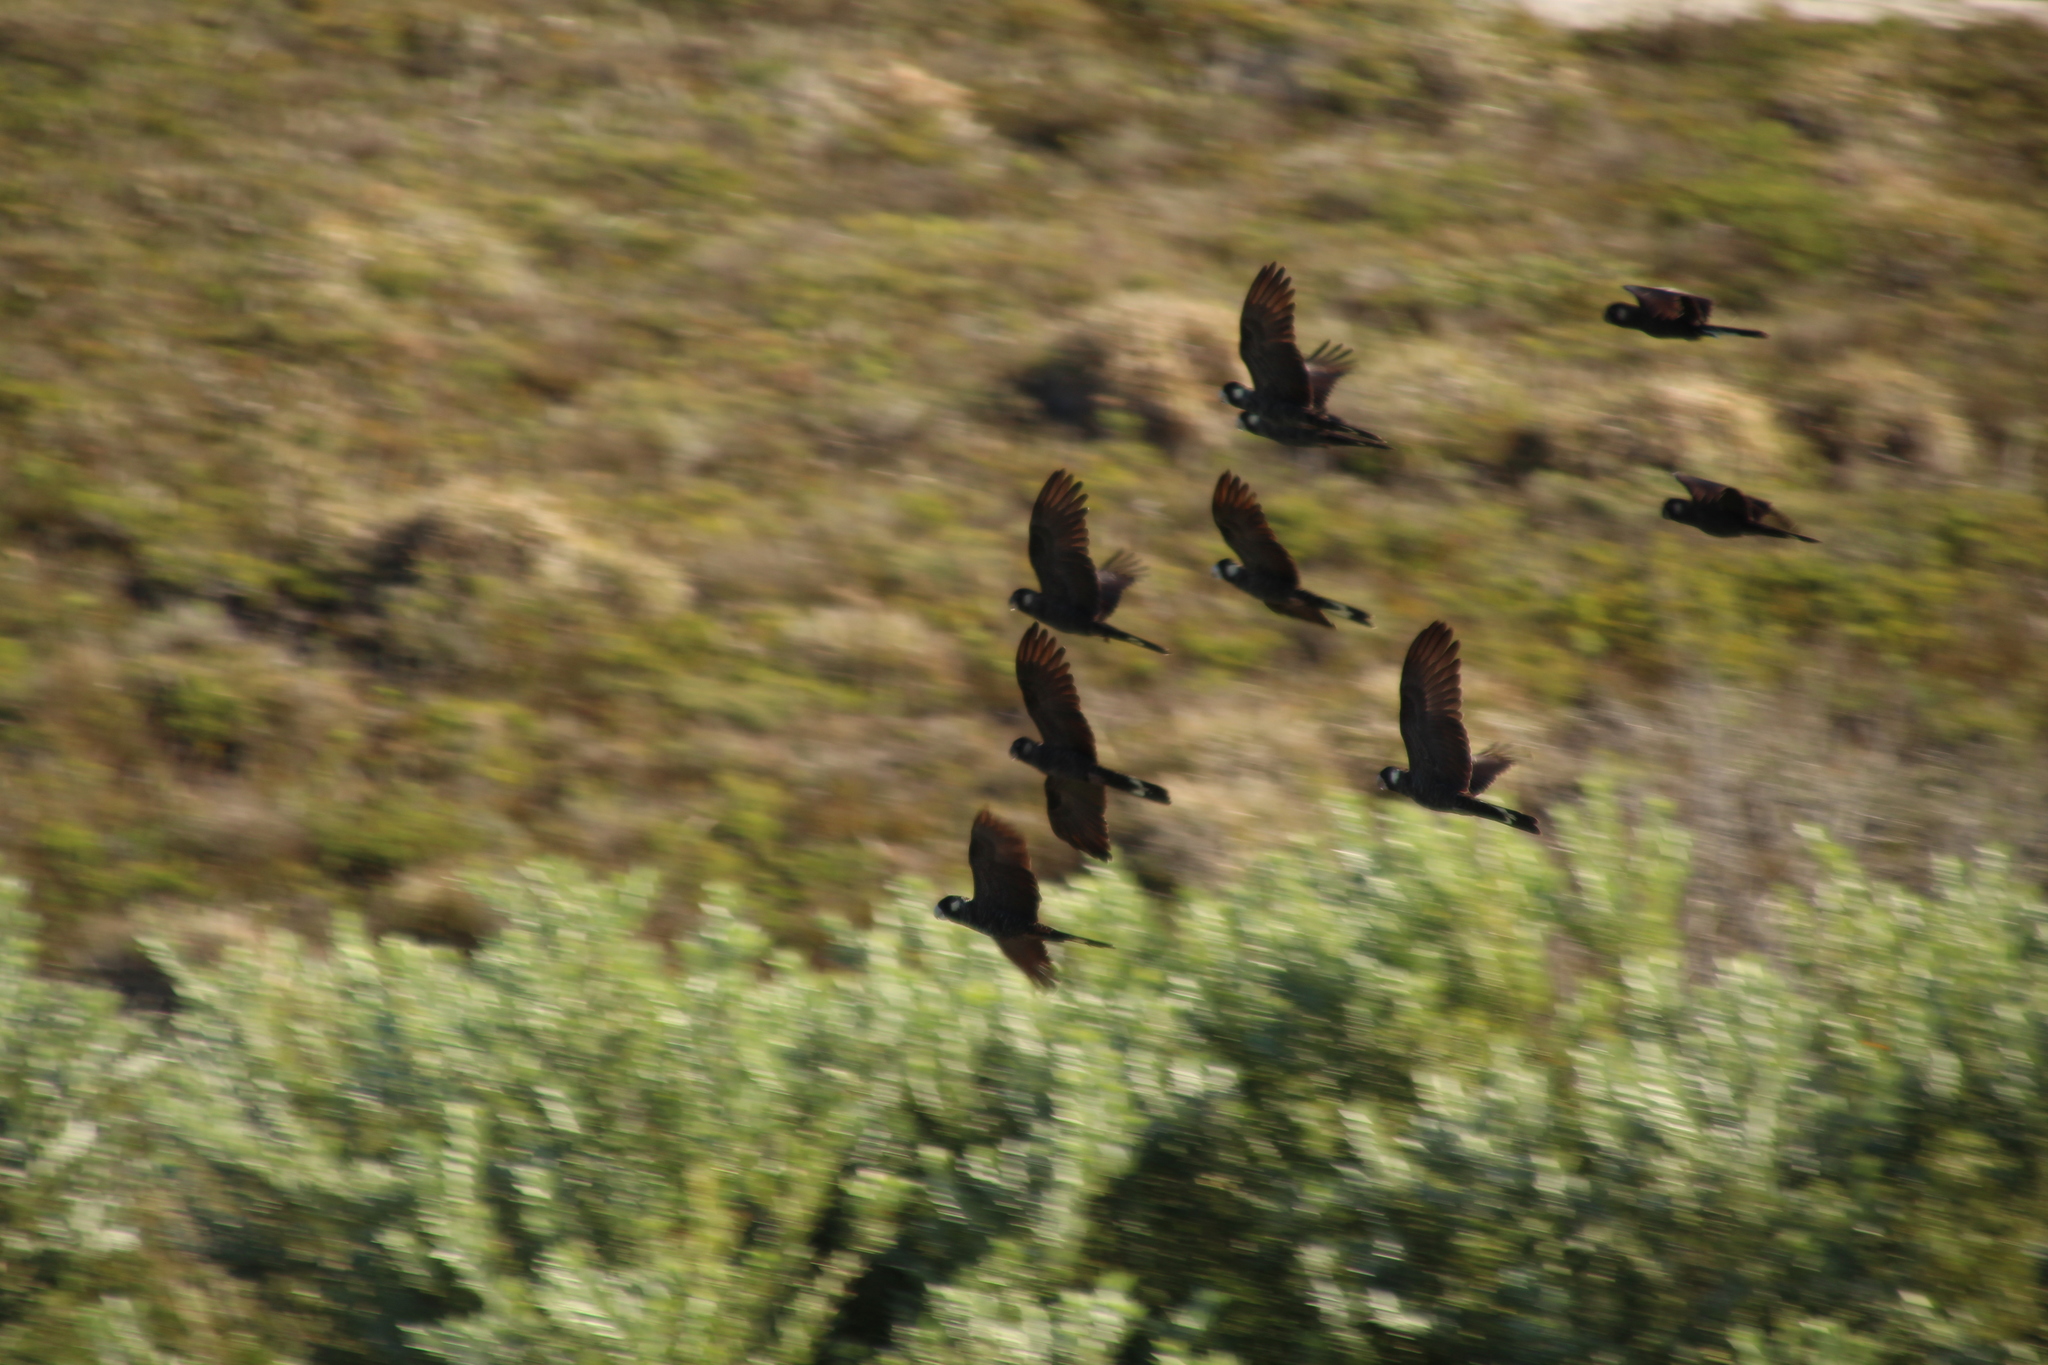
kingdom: Animalia
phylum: Chordata
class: Aves
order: Psittaciformes
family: Cacatuidae
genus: Zanda
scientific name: Zanda latirostris
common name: Short-billed black-cockatoo
